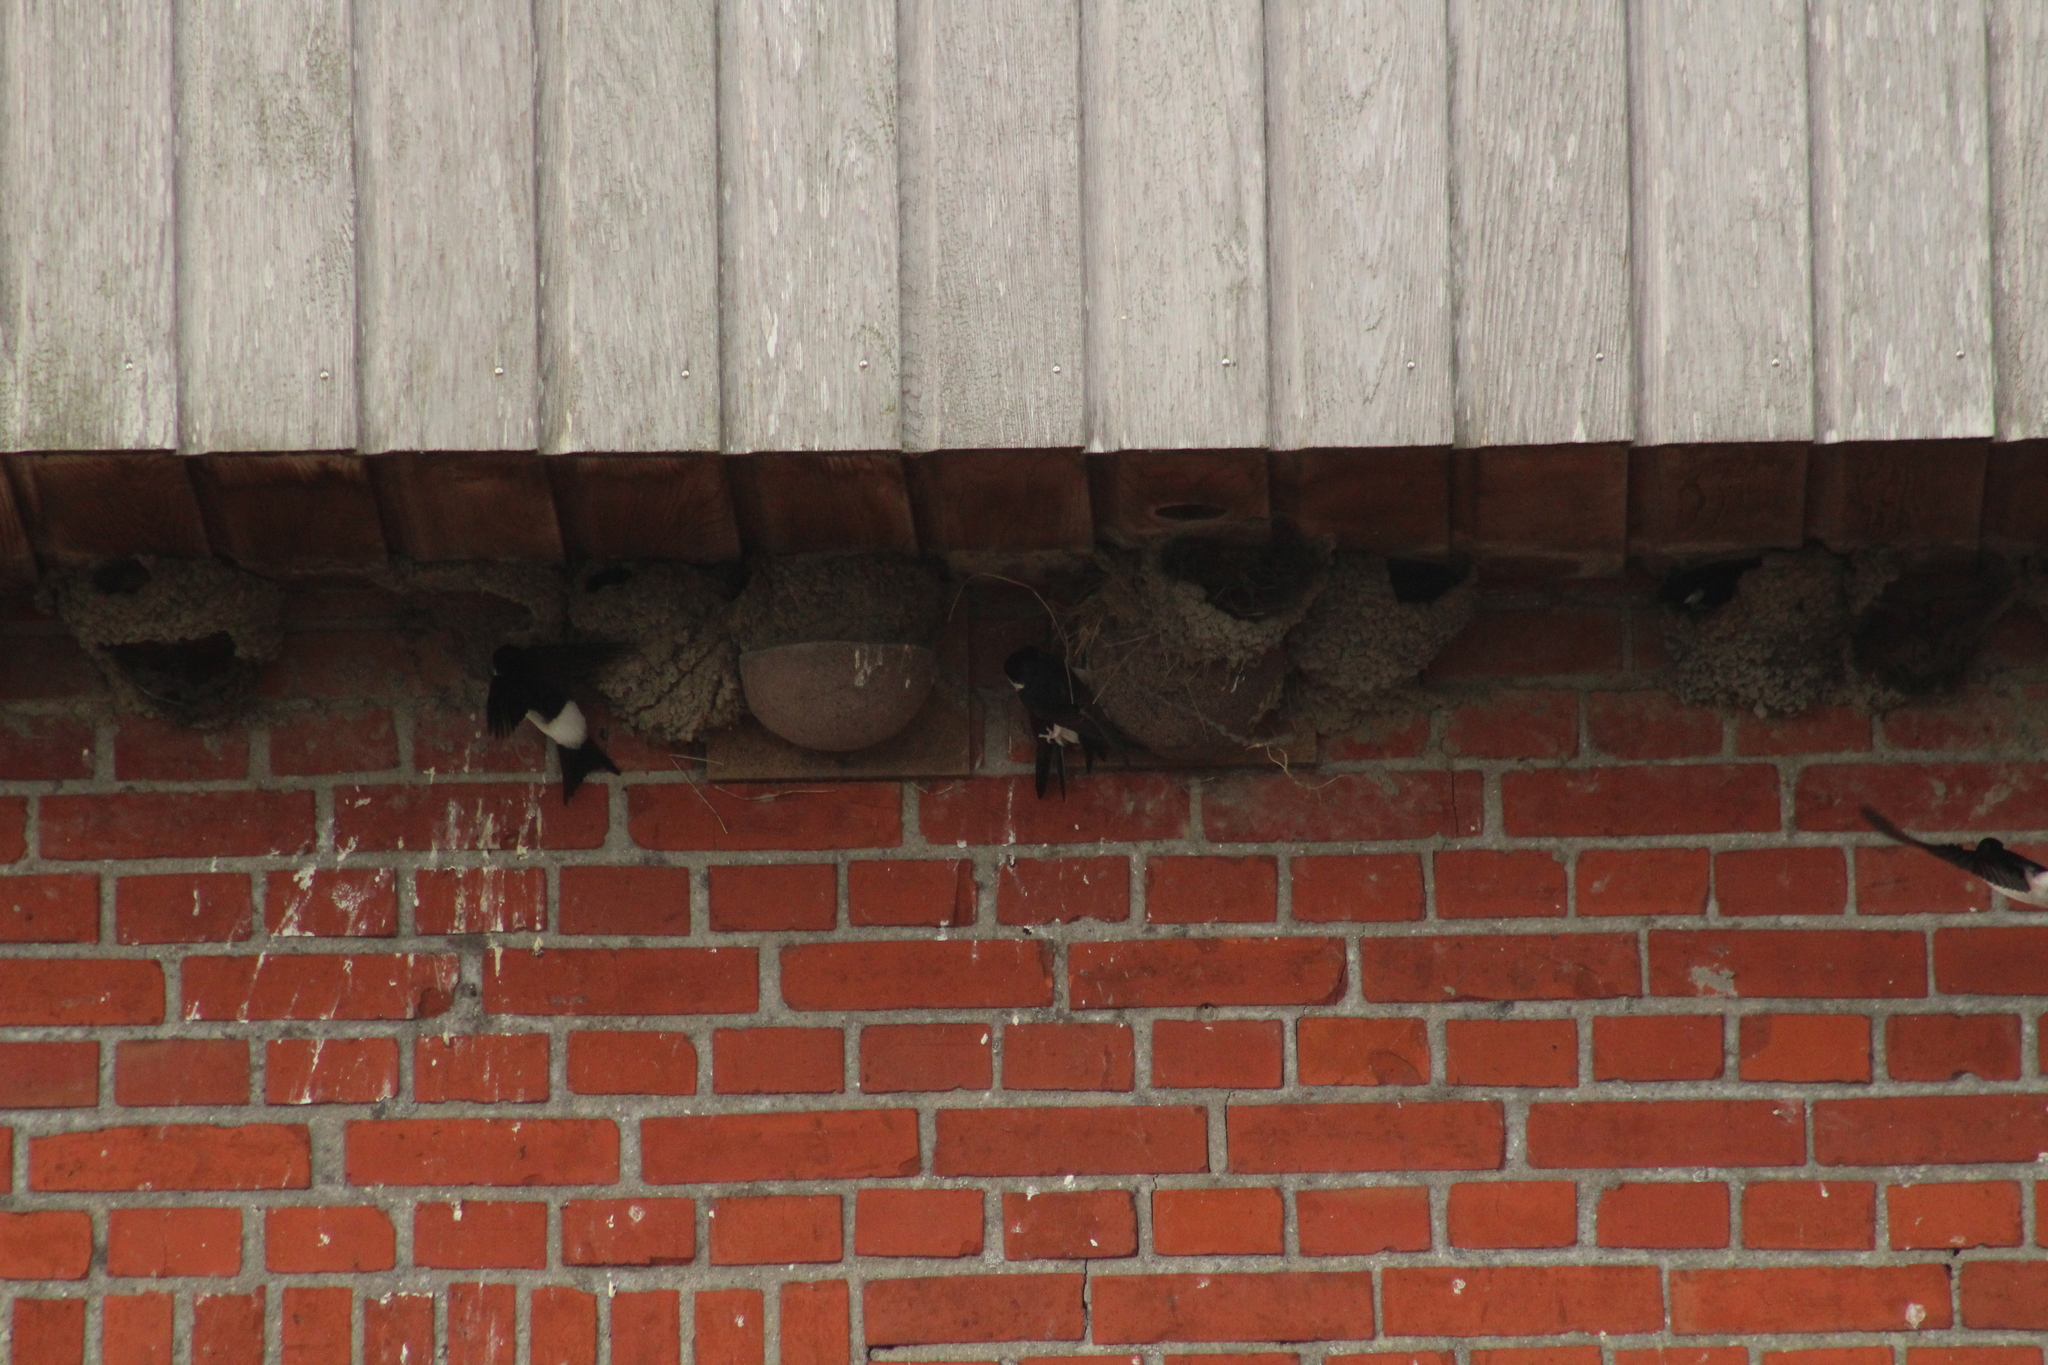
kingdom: Animalia
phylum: Chordata
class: Aves
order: Passeriformes
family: Hirundinidae
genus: Delichon
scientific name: Delichon urbicum
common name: Common house martin
